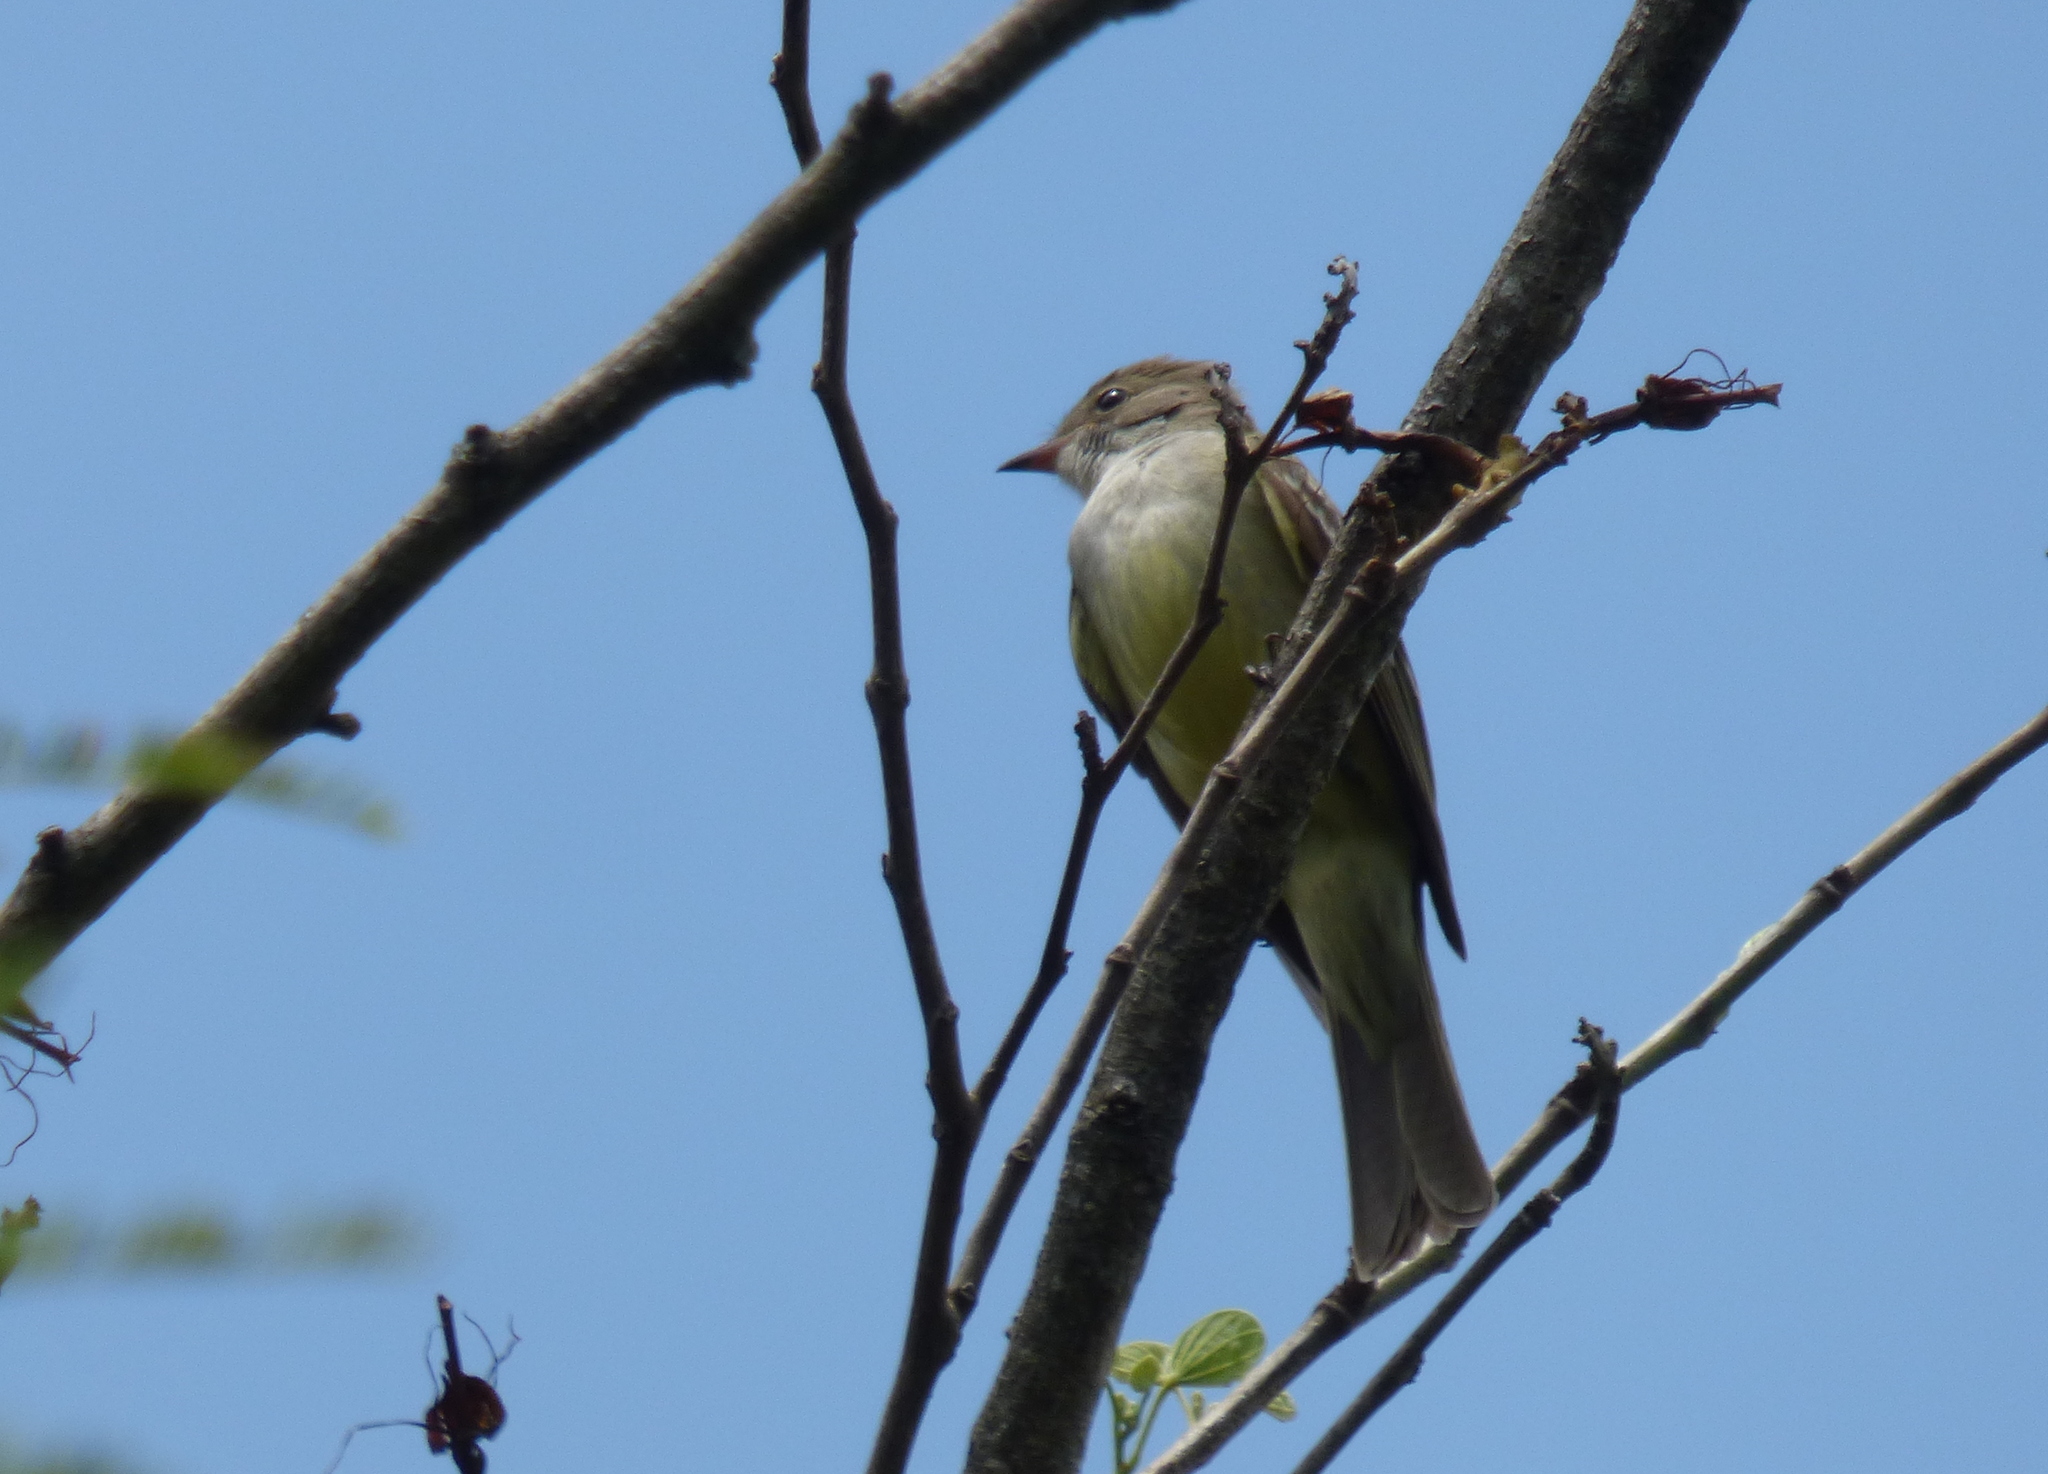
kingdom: Animalia
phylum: Chordata
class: Aves
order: Passeriformes
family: Tyrannidae
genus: Elaenia
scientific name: Elaenia spectabilis
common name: Large elaenia
